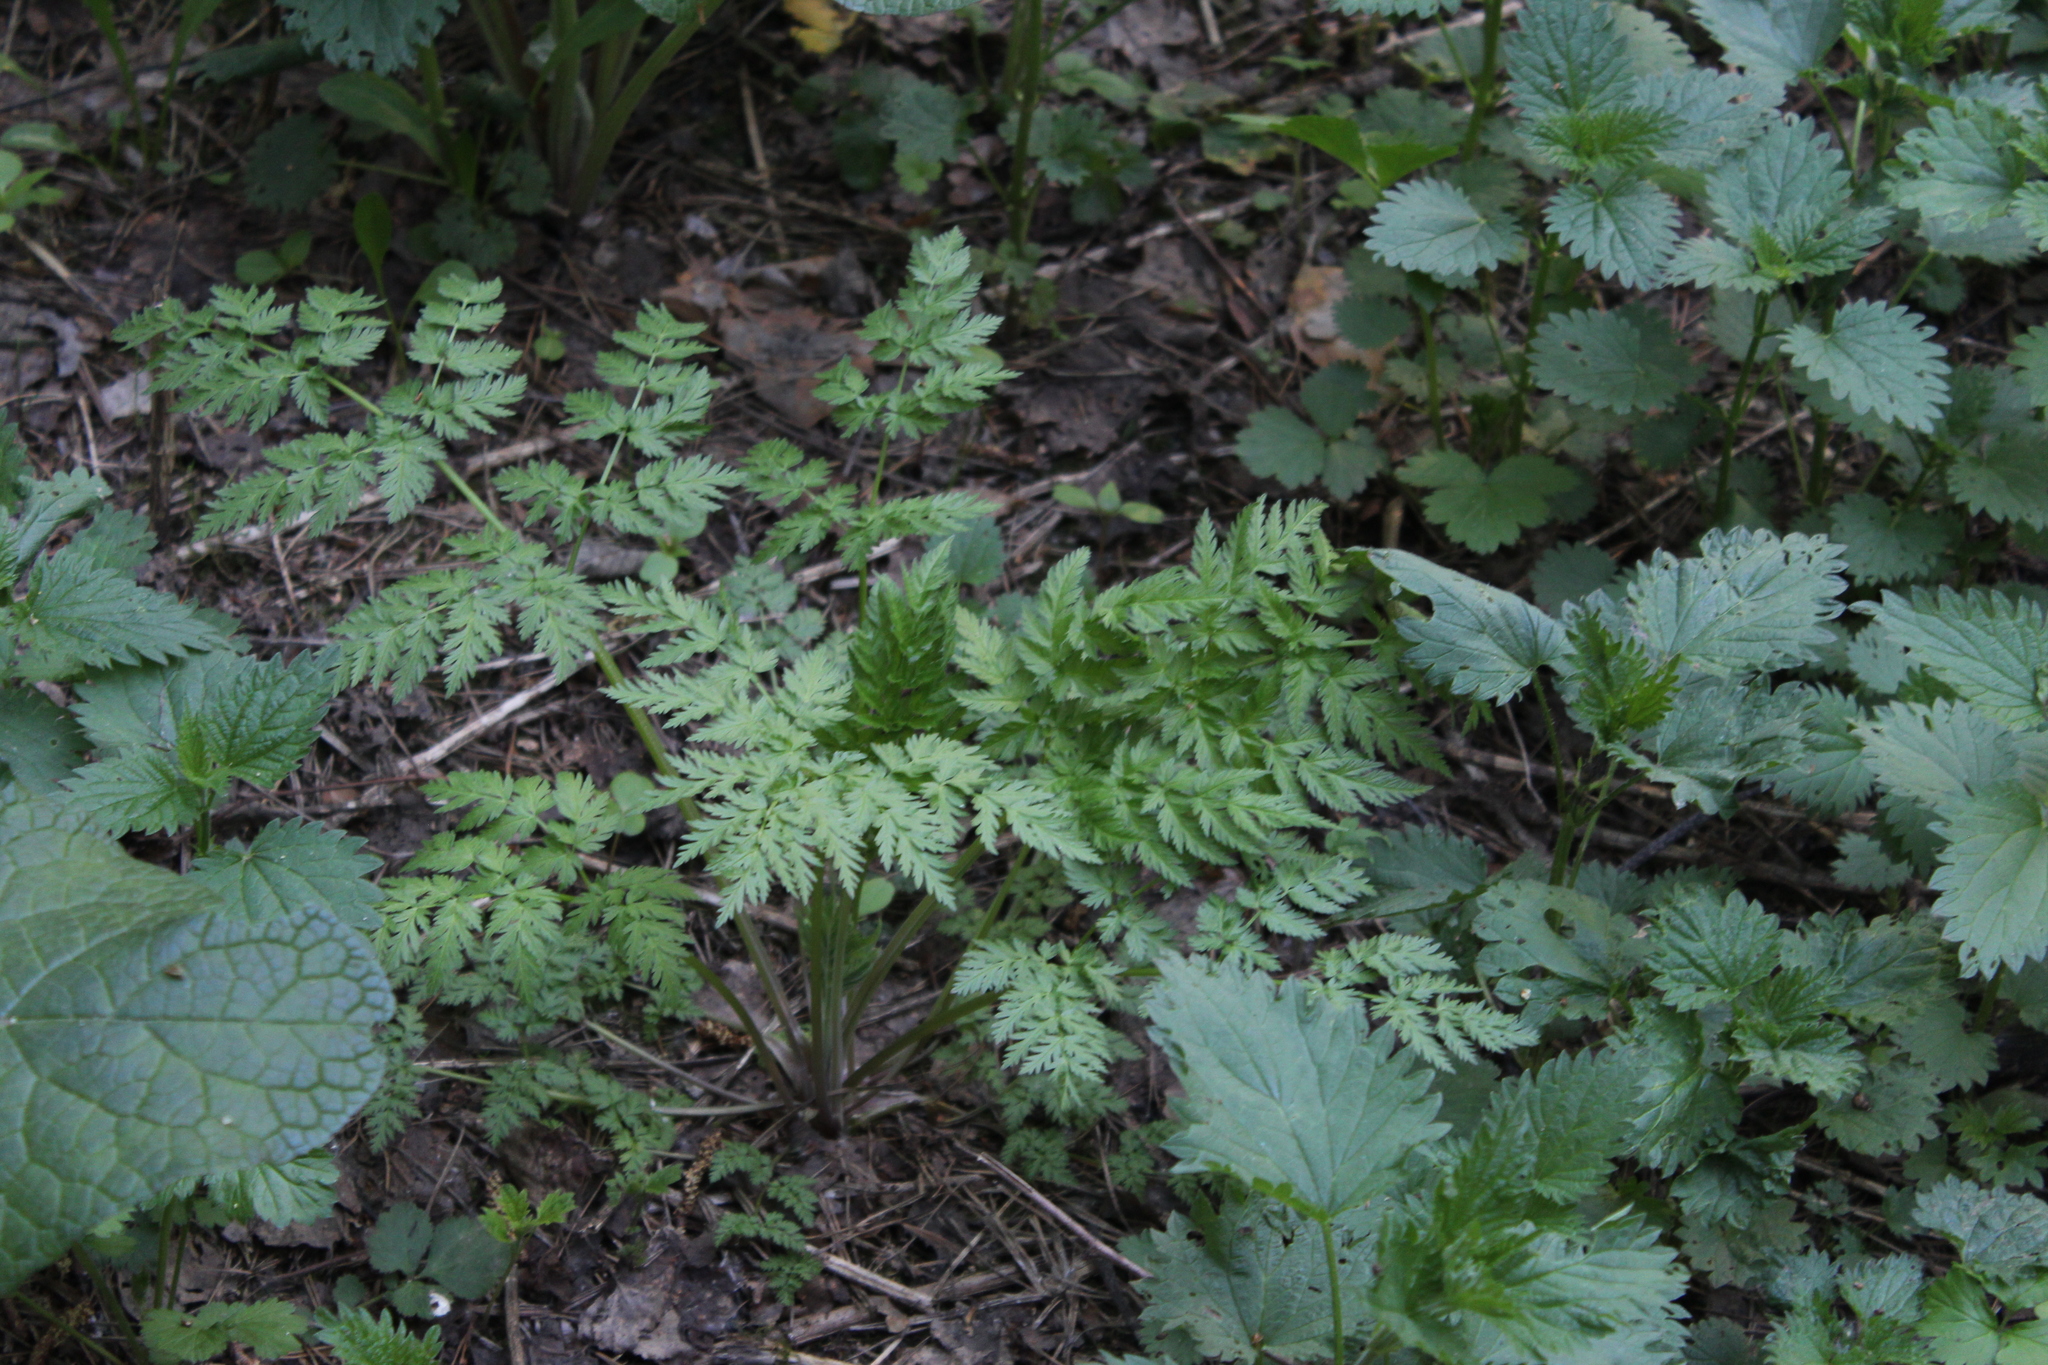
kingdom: Plantae
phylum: Tracheophyta
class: Magnoliopsida
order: Apiales
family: Apiaceae
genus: Anthriscus
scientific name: Anthriscus sylvestris
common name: Cow parsley
